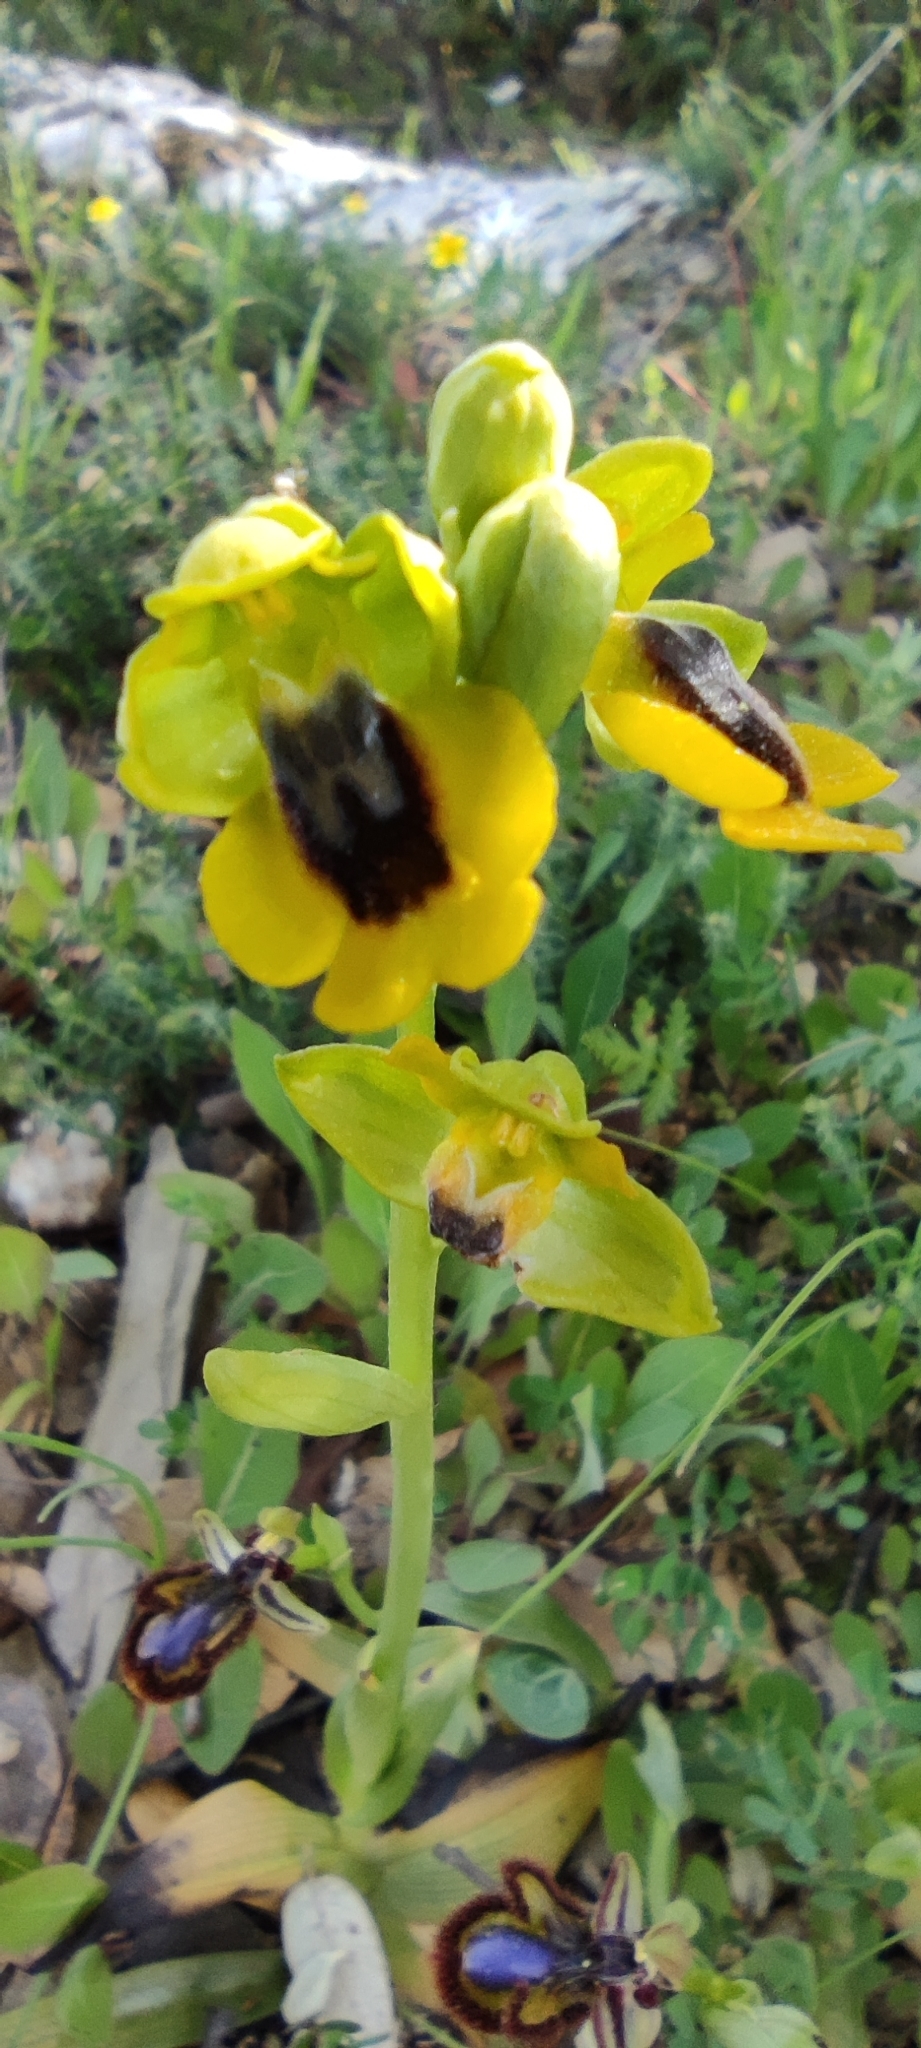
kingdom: Plantae
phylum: Tracheophyta
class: Liliopsida
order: Asparagales
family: Orchidaceae
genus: Ophrys
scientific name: Ophrys lutea
